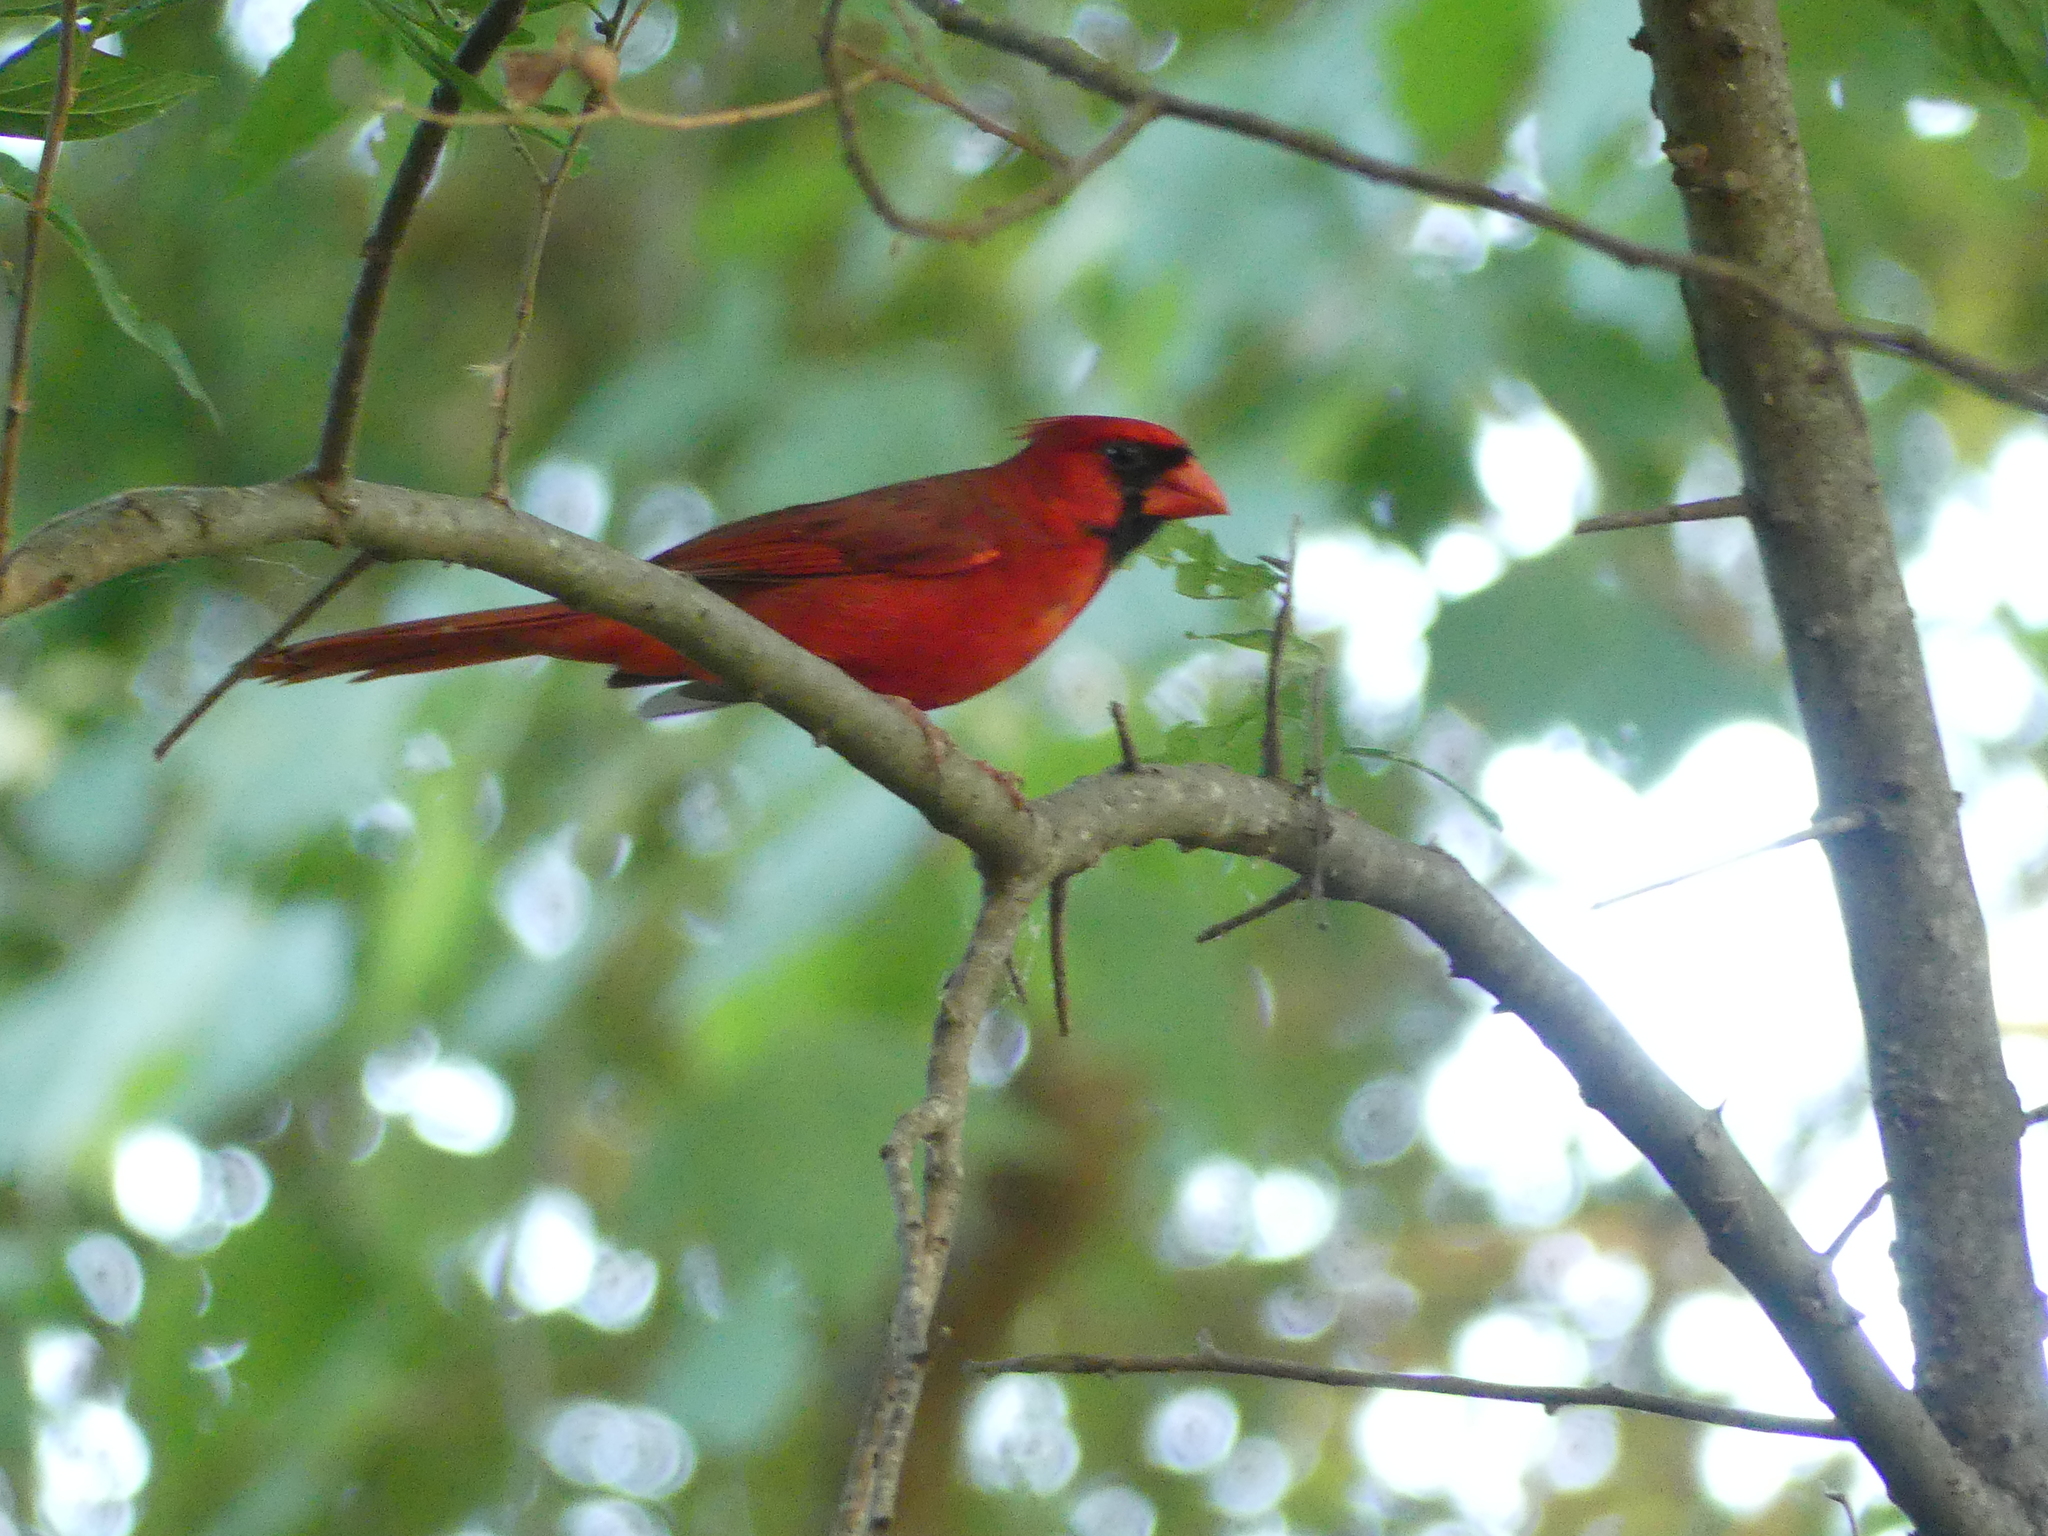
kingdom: Animalia
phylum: Chordata
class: Aves
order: Passeriformes
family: Cardinalidae
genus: Cardinalis
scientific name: Cardinalis cardinalis
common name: Northern cardinal
